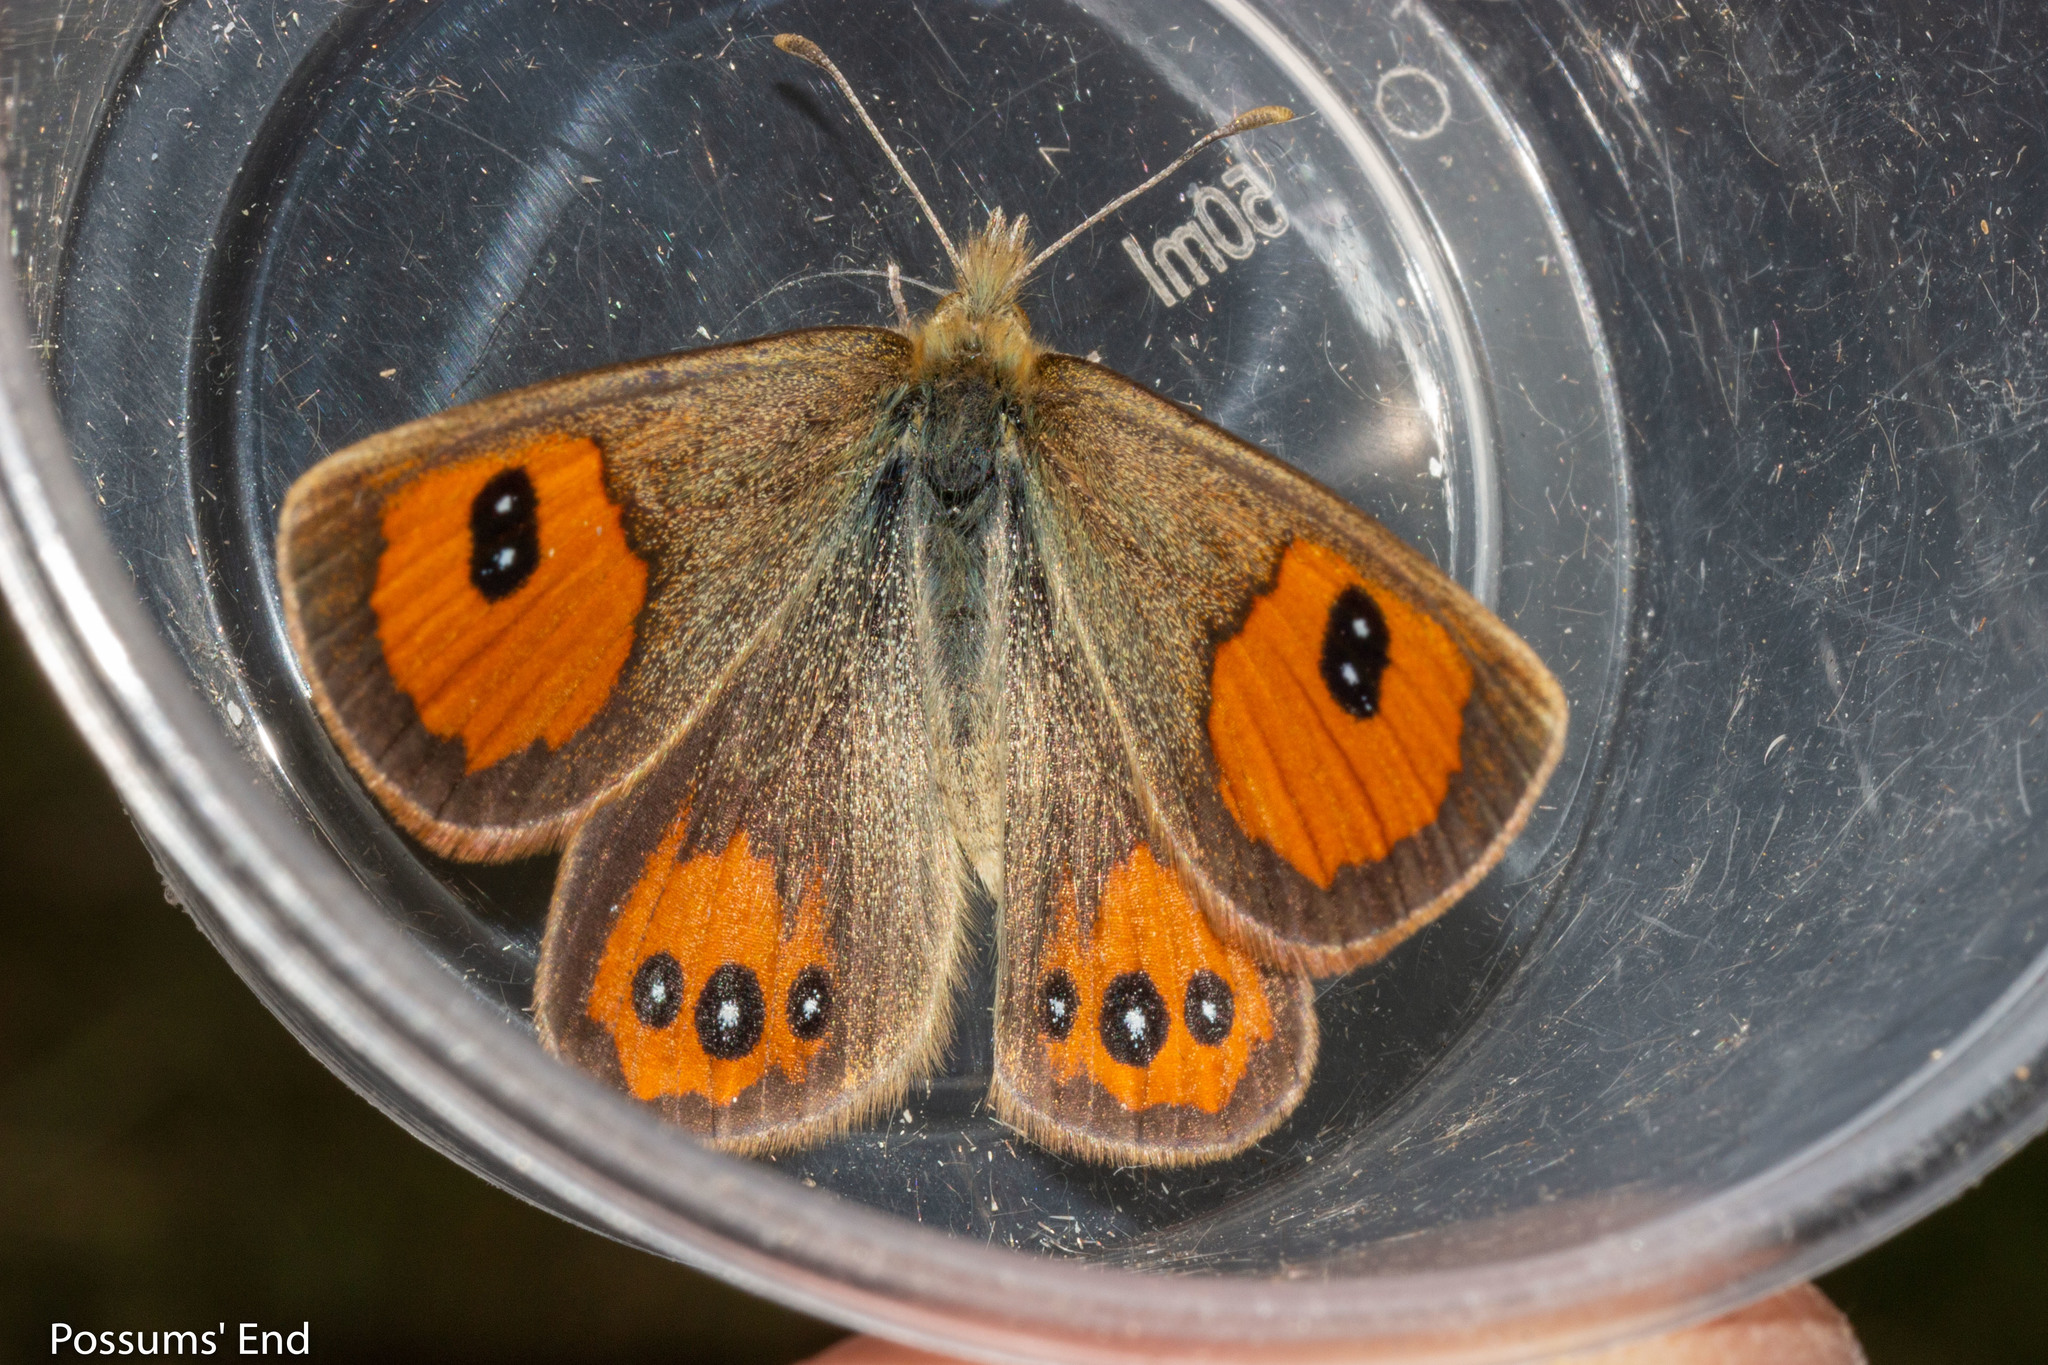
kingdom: Animalia
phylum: Arthropoda
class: Insecta
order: Lepidoptera
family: Nymphalidae
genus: Argyrophenga
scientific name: Argyrophenga antipodum
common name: Common tussock butterfly
